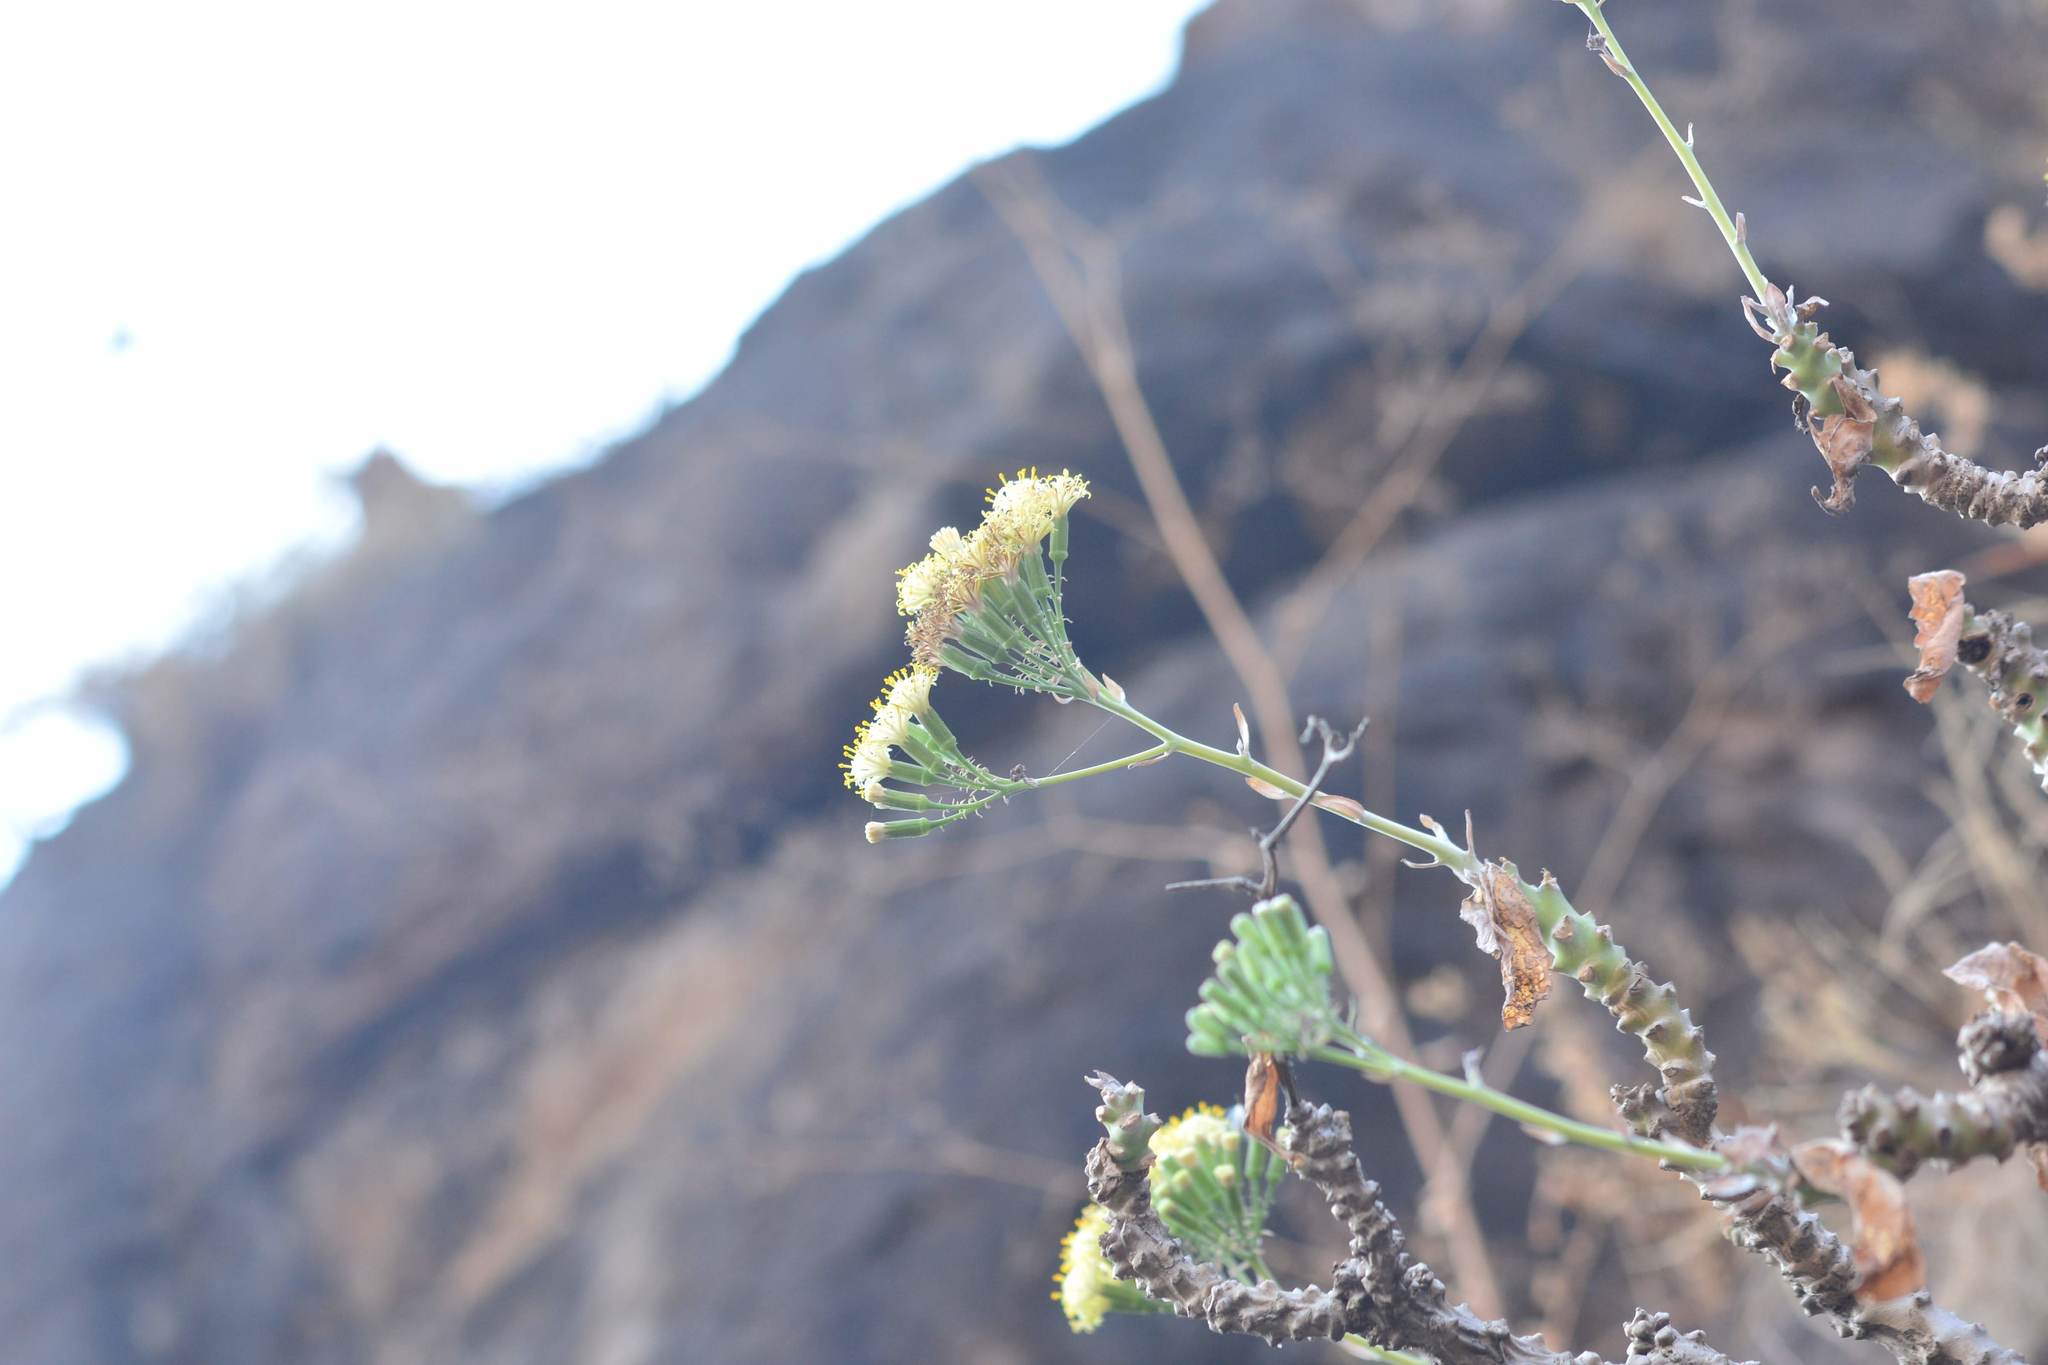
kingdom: Plantae
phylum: Tracheophyta
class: Magnoliopsida
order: Asterales
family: Asteraceae
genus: Kleinia
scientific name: Kleinia grandiflora
